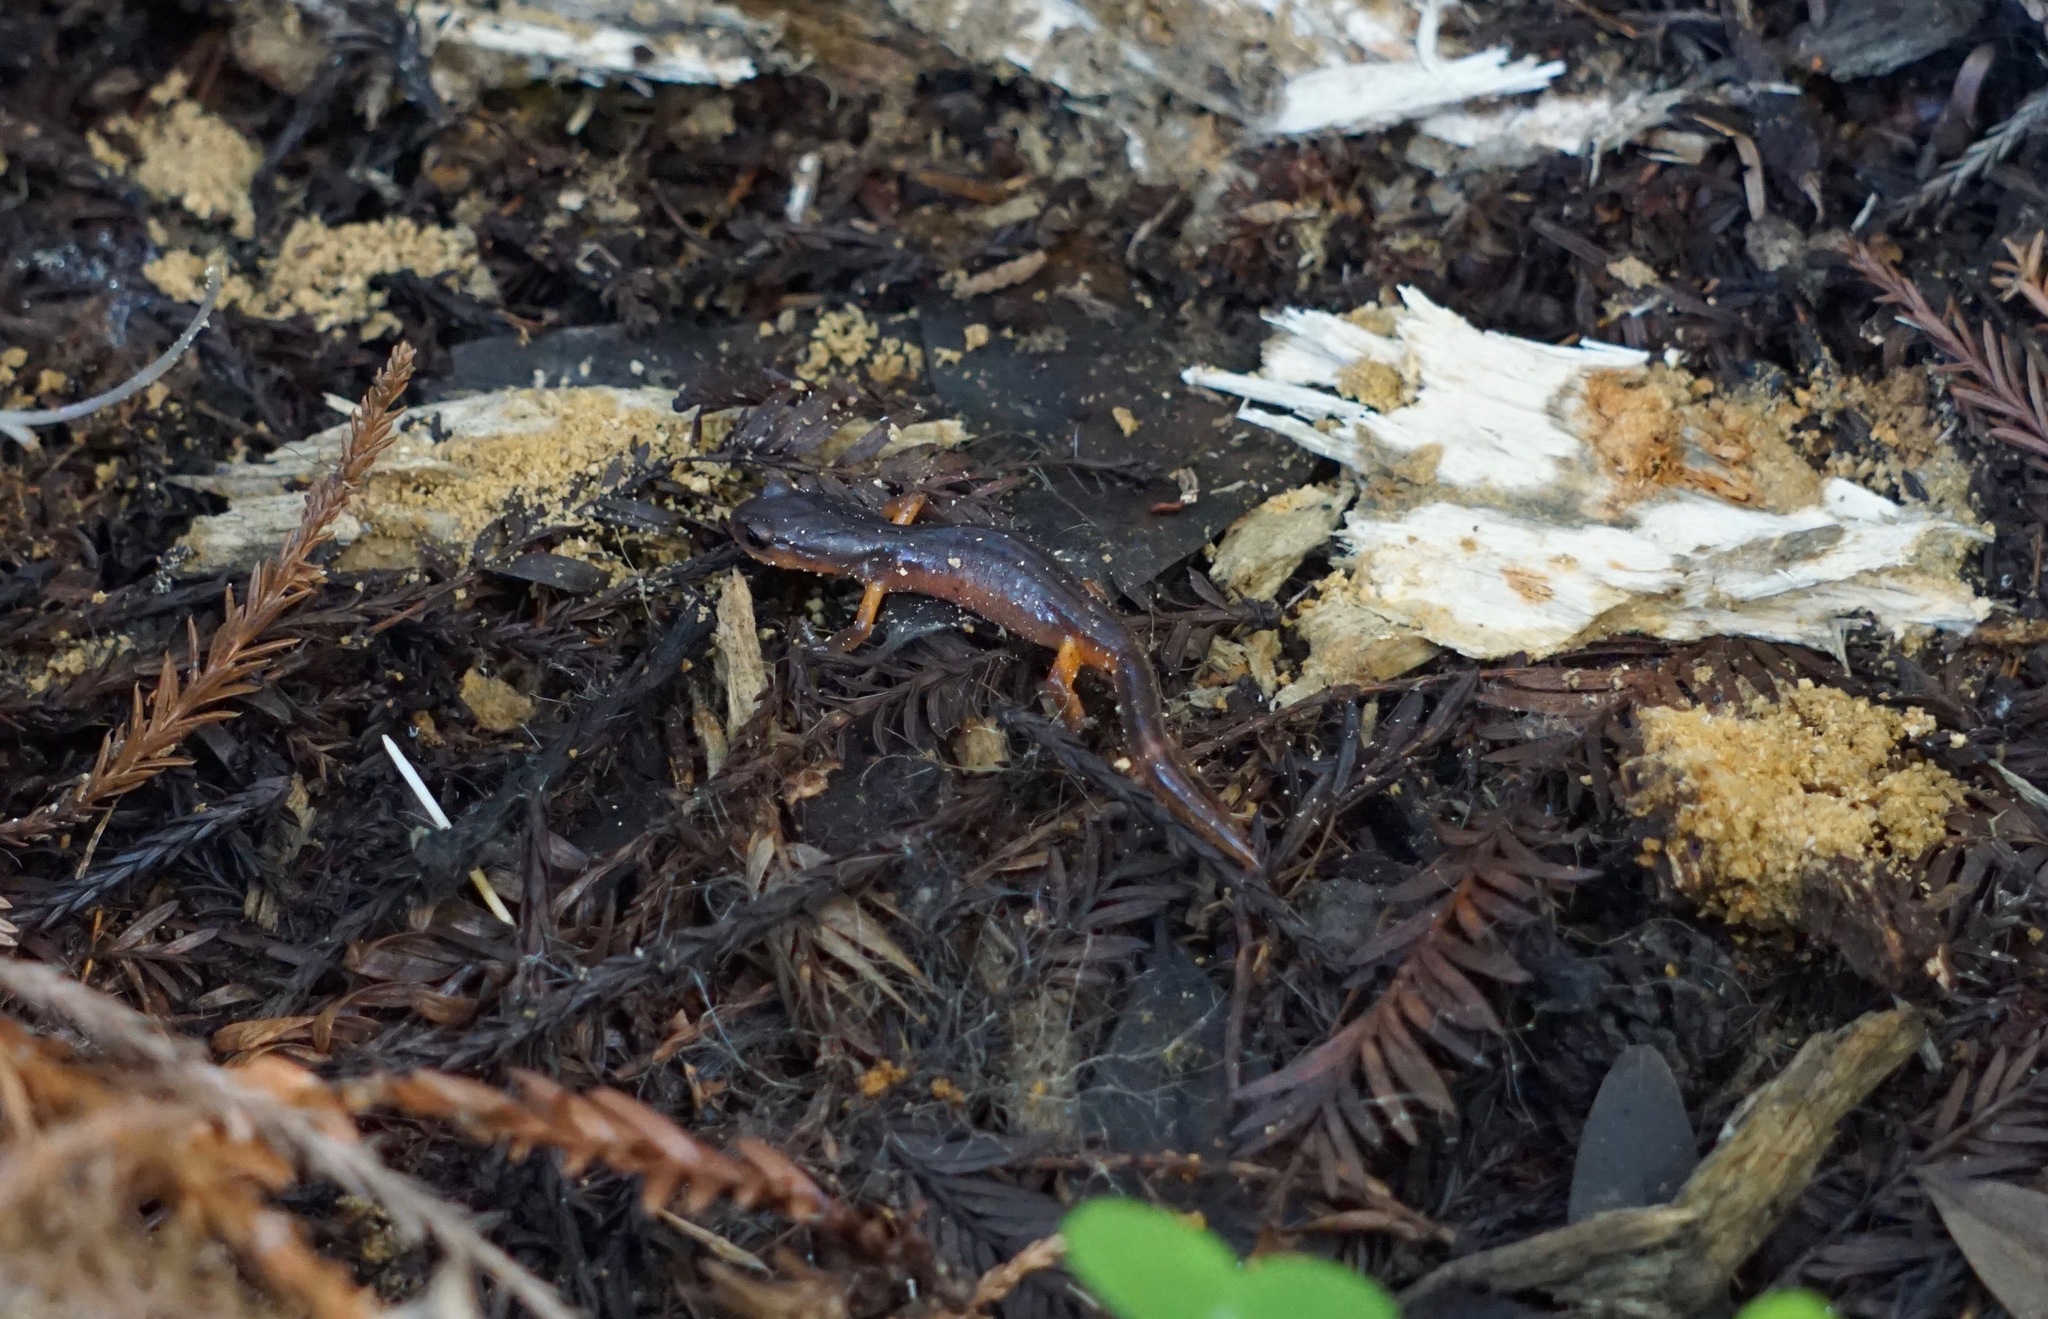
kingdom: Animalia
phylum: Chordata
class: Amphibia
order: Caudata
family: Plethodontidae
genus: Ensatina
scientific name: Ensatina eschscholtzii
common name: Ensatina
